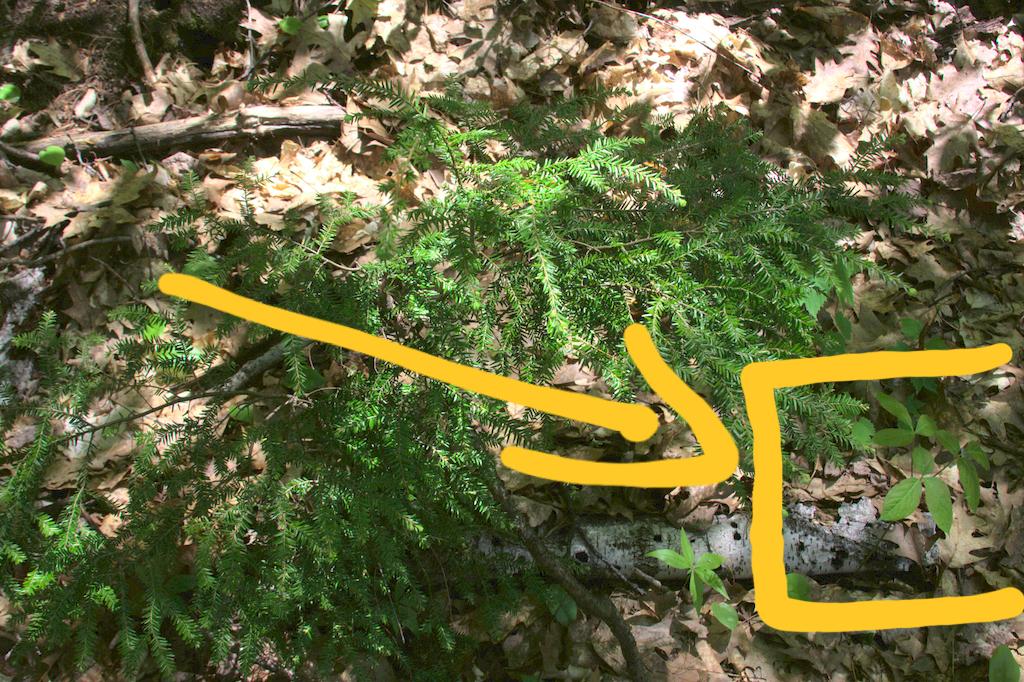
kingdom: Plantae
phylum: Tracheophyta
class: Magnoliopsida
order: Apiales
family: Araliaceae
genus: Aralia
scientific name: Aralia nudicaulis
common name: Wild sarsaparilla
